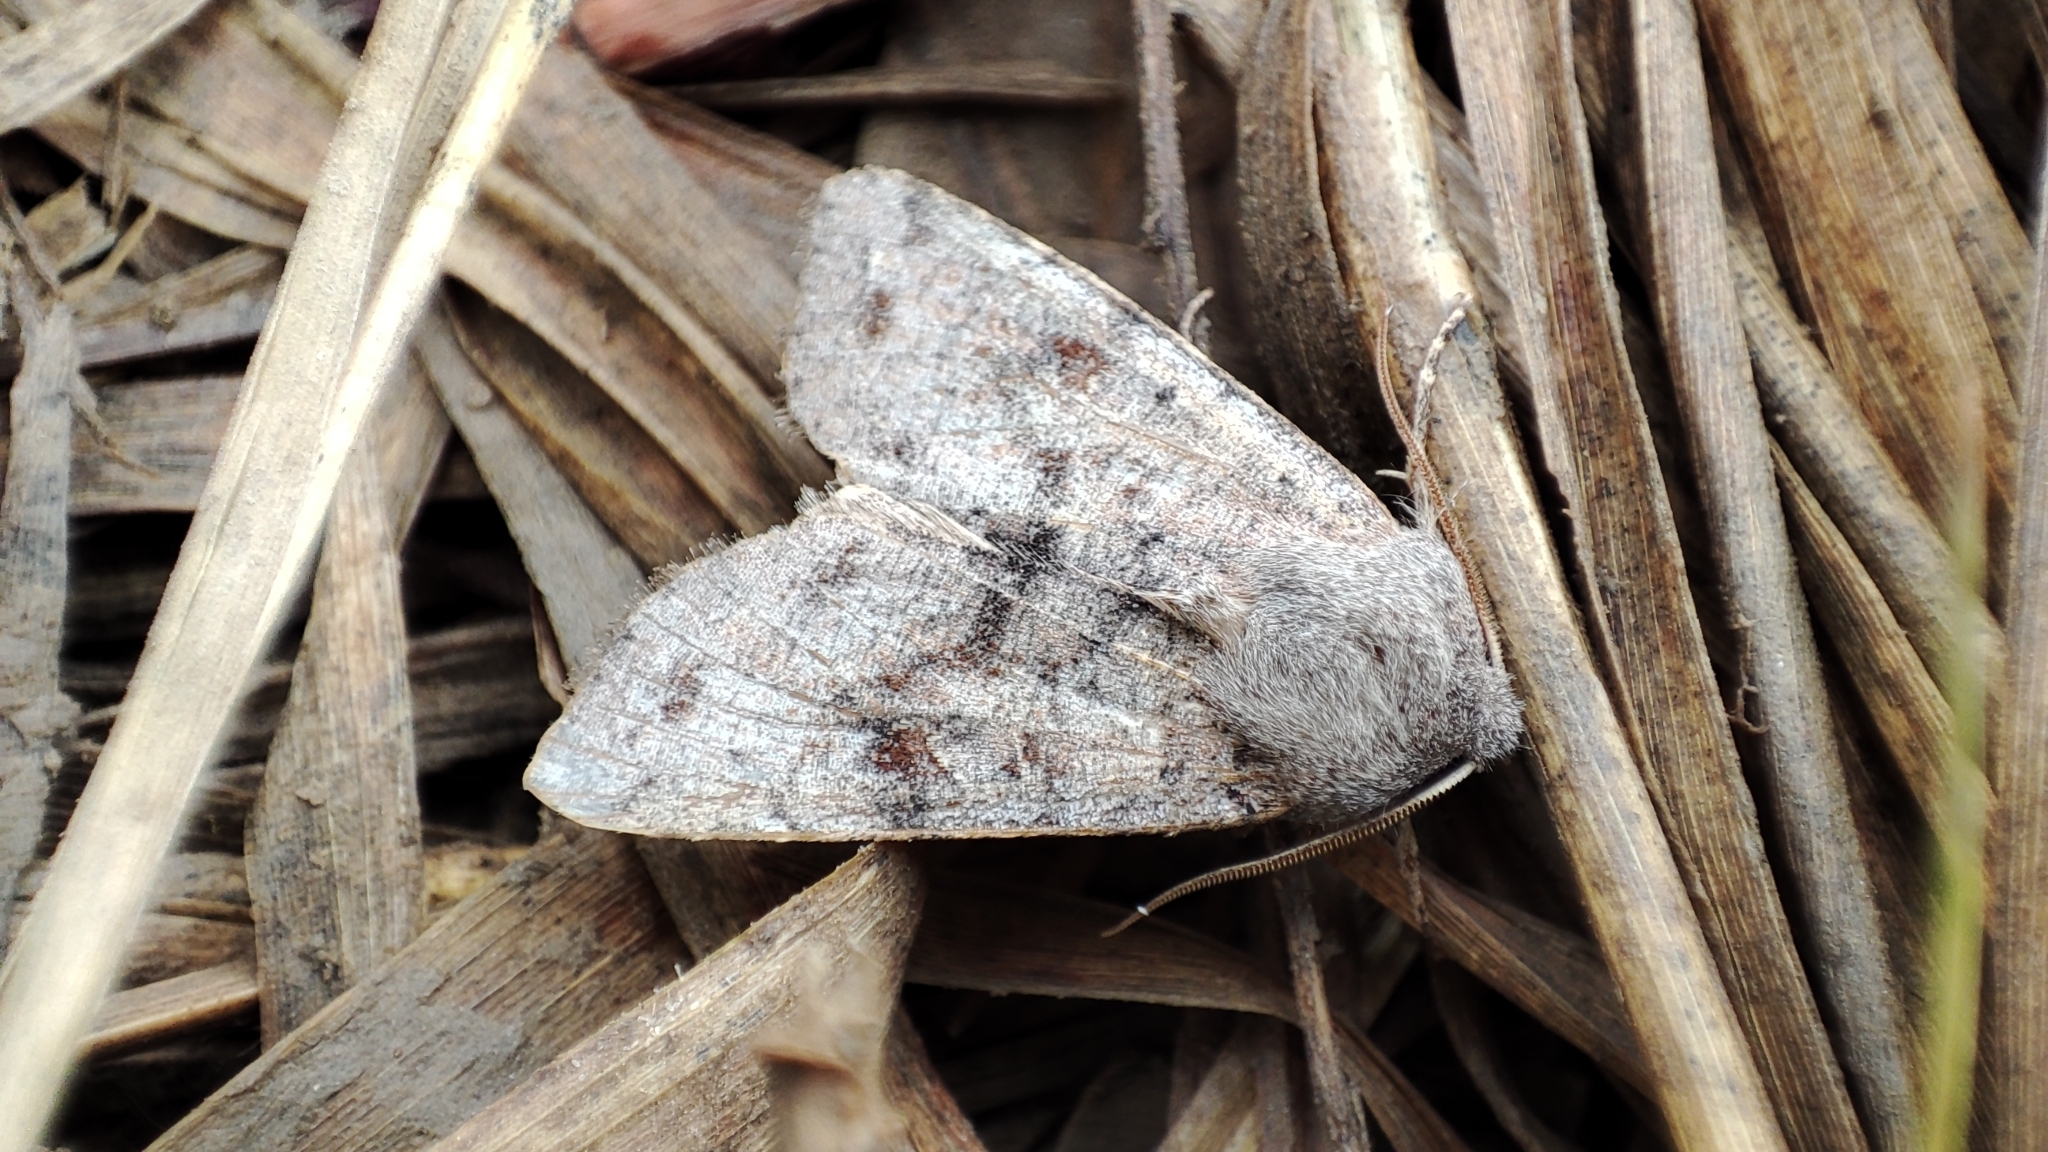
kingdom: Animalia
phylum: Arthropoda
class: Insecta
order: Lepidoptera
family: Noctuidae
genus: Orthosia
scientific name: Orthosia incerta
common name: Clouded drab
